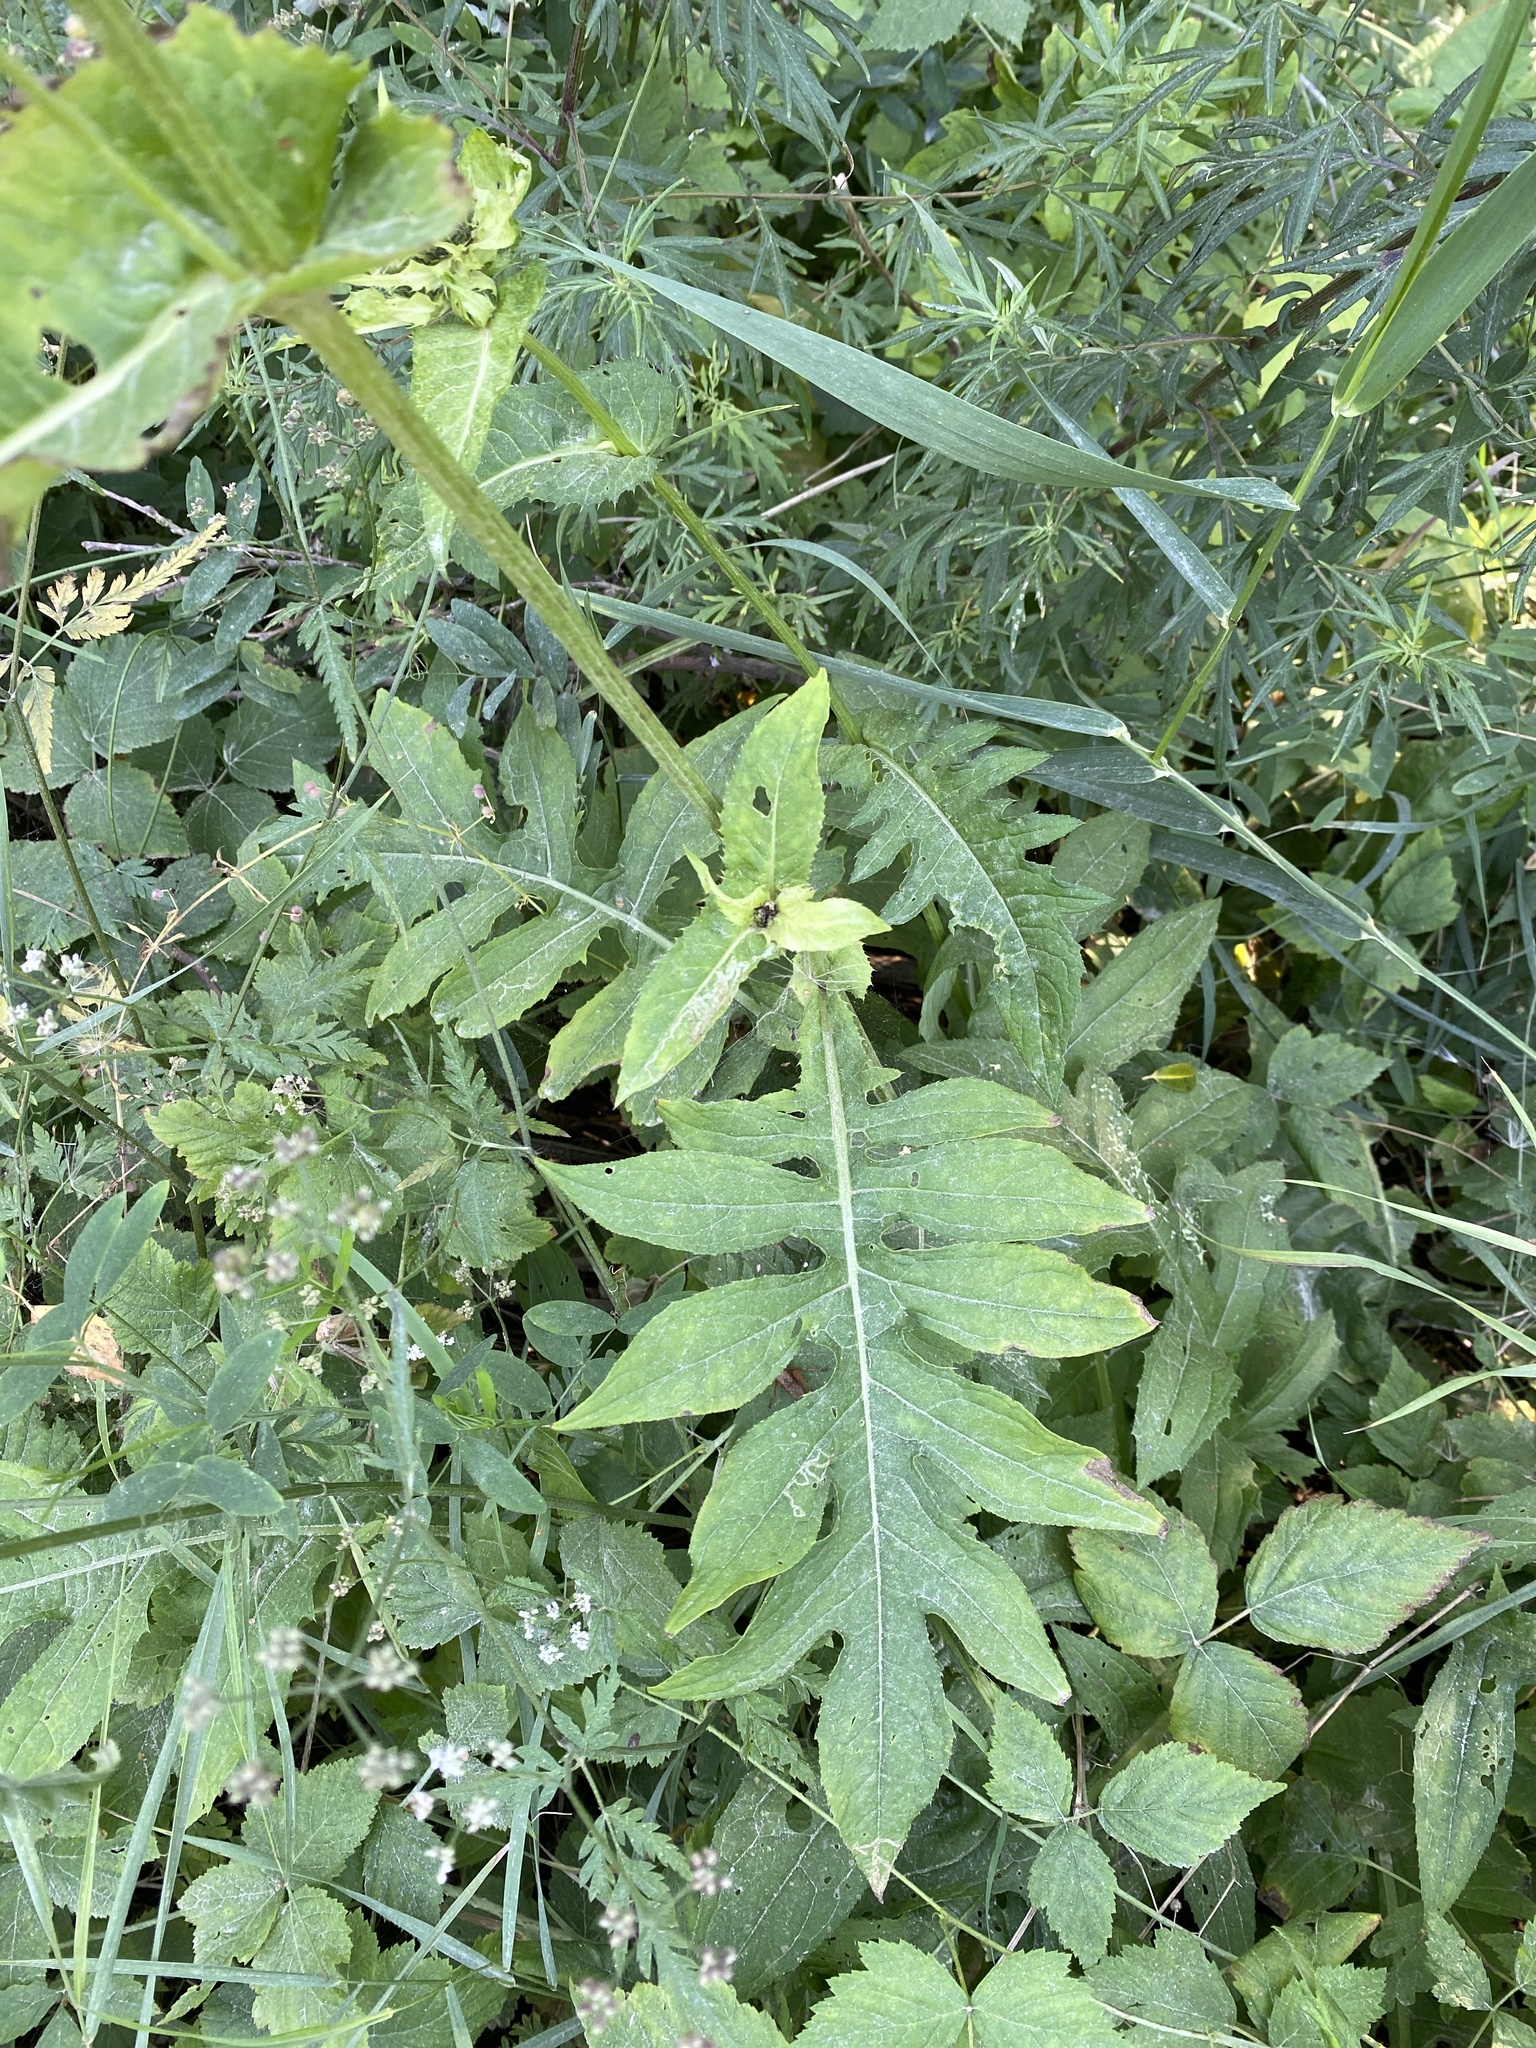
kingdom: Plantae
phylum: Tracheophyta
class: Magnoliopsida
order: Asterales
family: Asteraceae
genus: Cirsium
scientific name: Cirsium oleraceum
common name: Cabbage thistle
